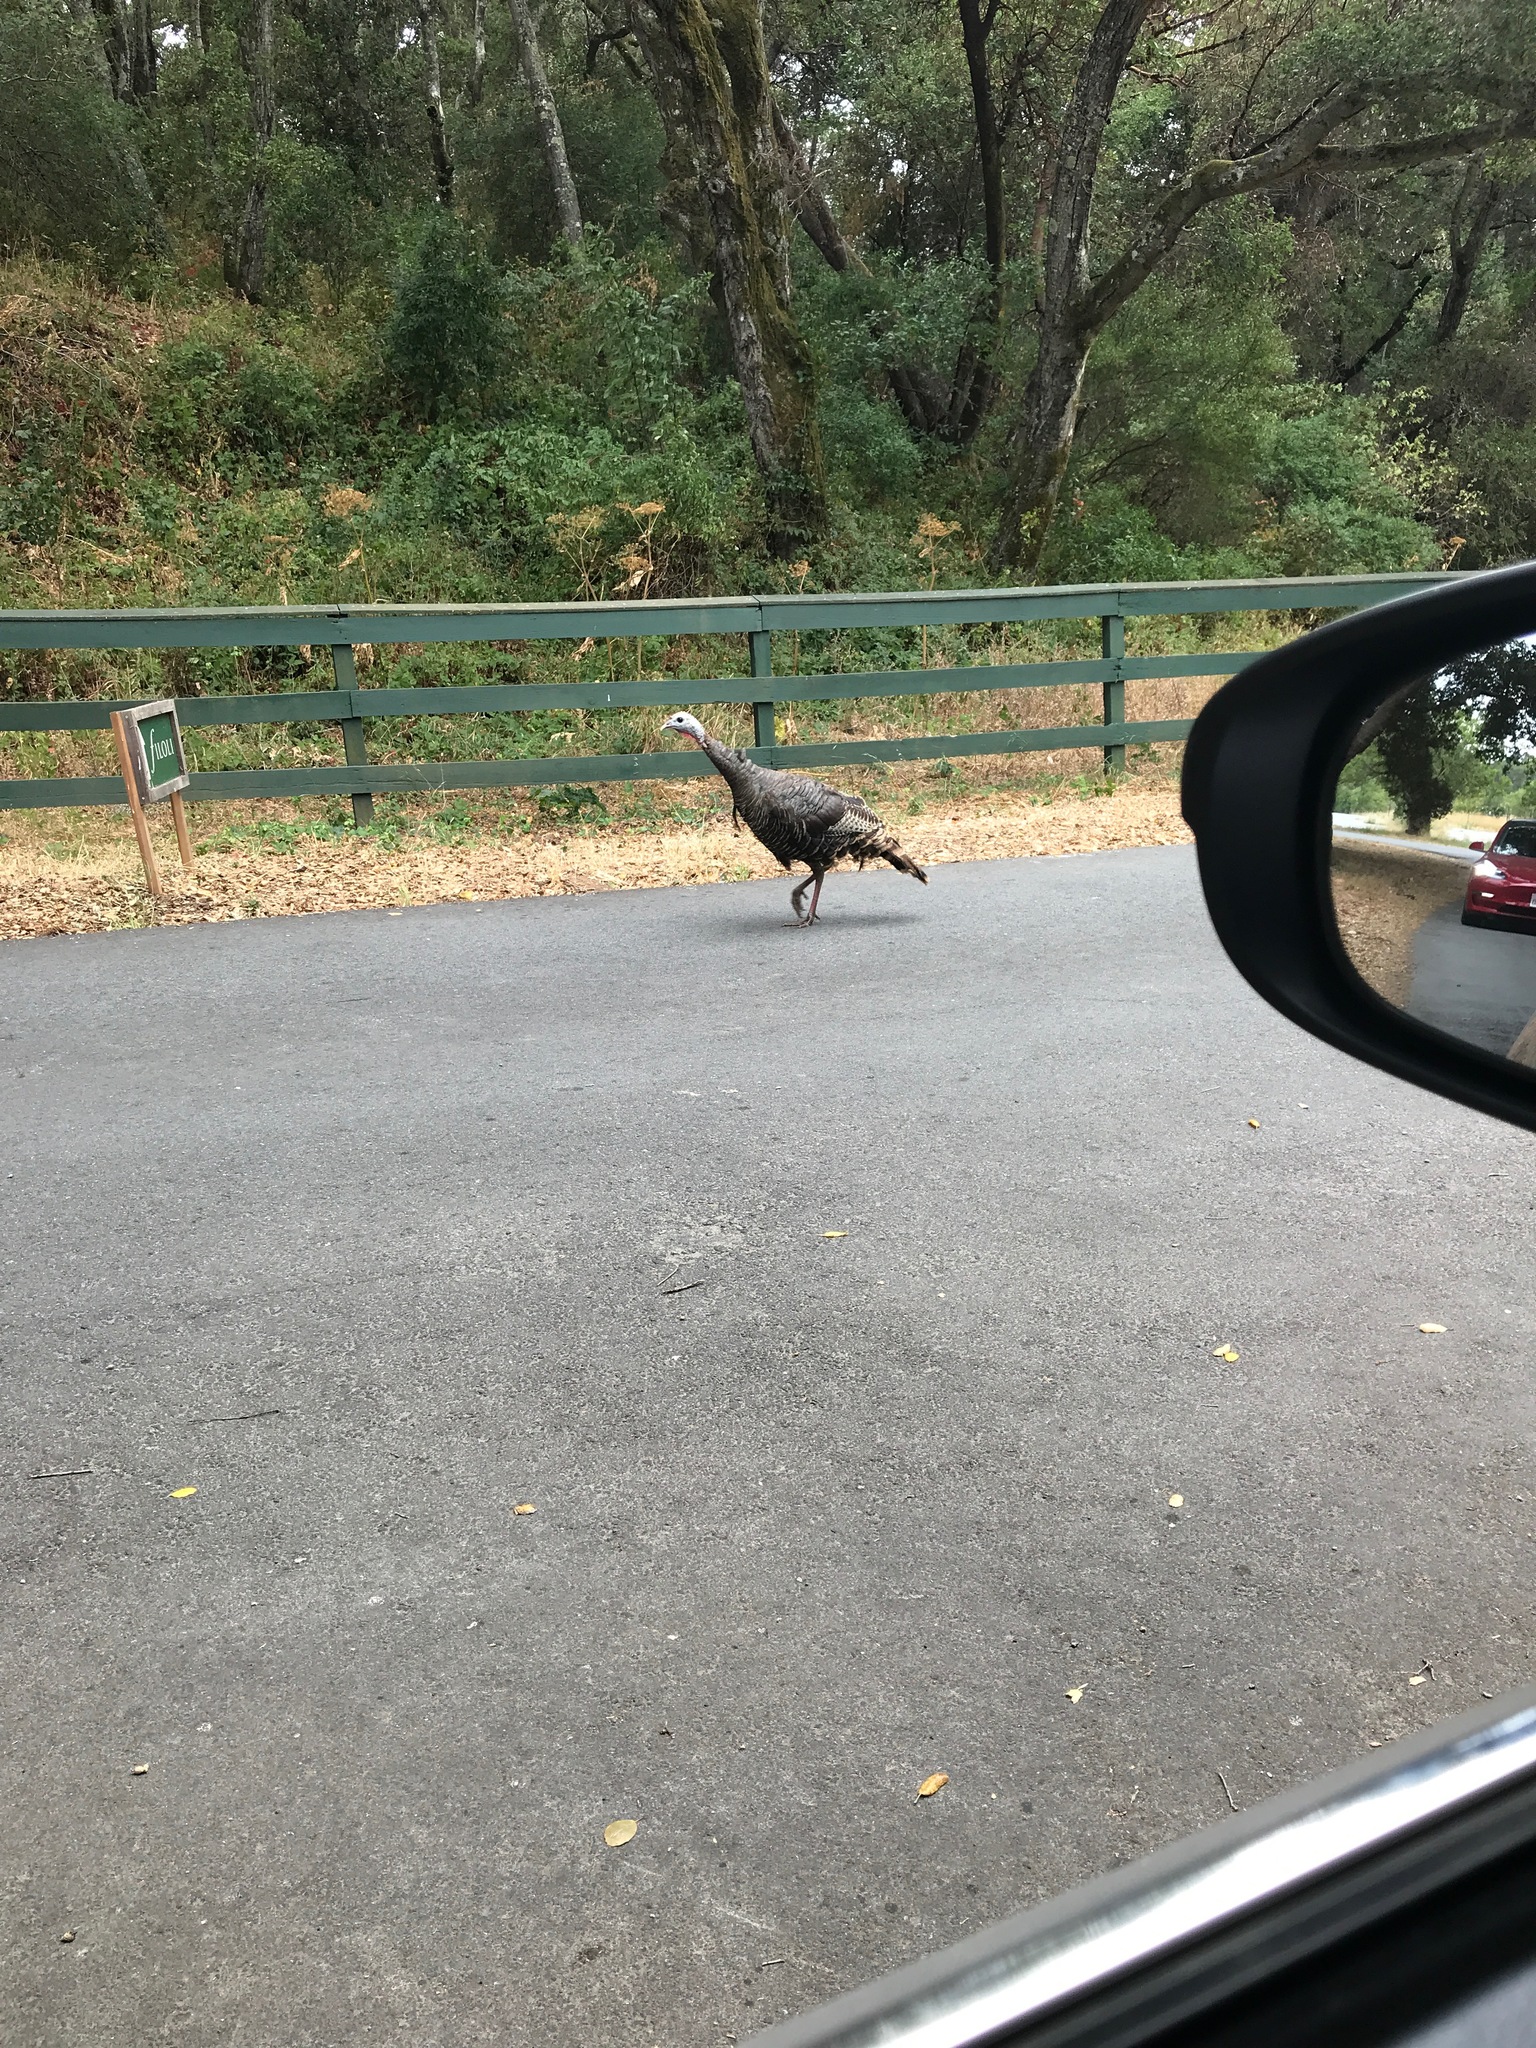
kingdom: Animalia
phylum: Chordata
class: Aves
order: Galliformes
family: Phasianidae
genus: Meleagris
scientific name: Meleagris gallopavo
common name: Wild turkey
